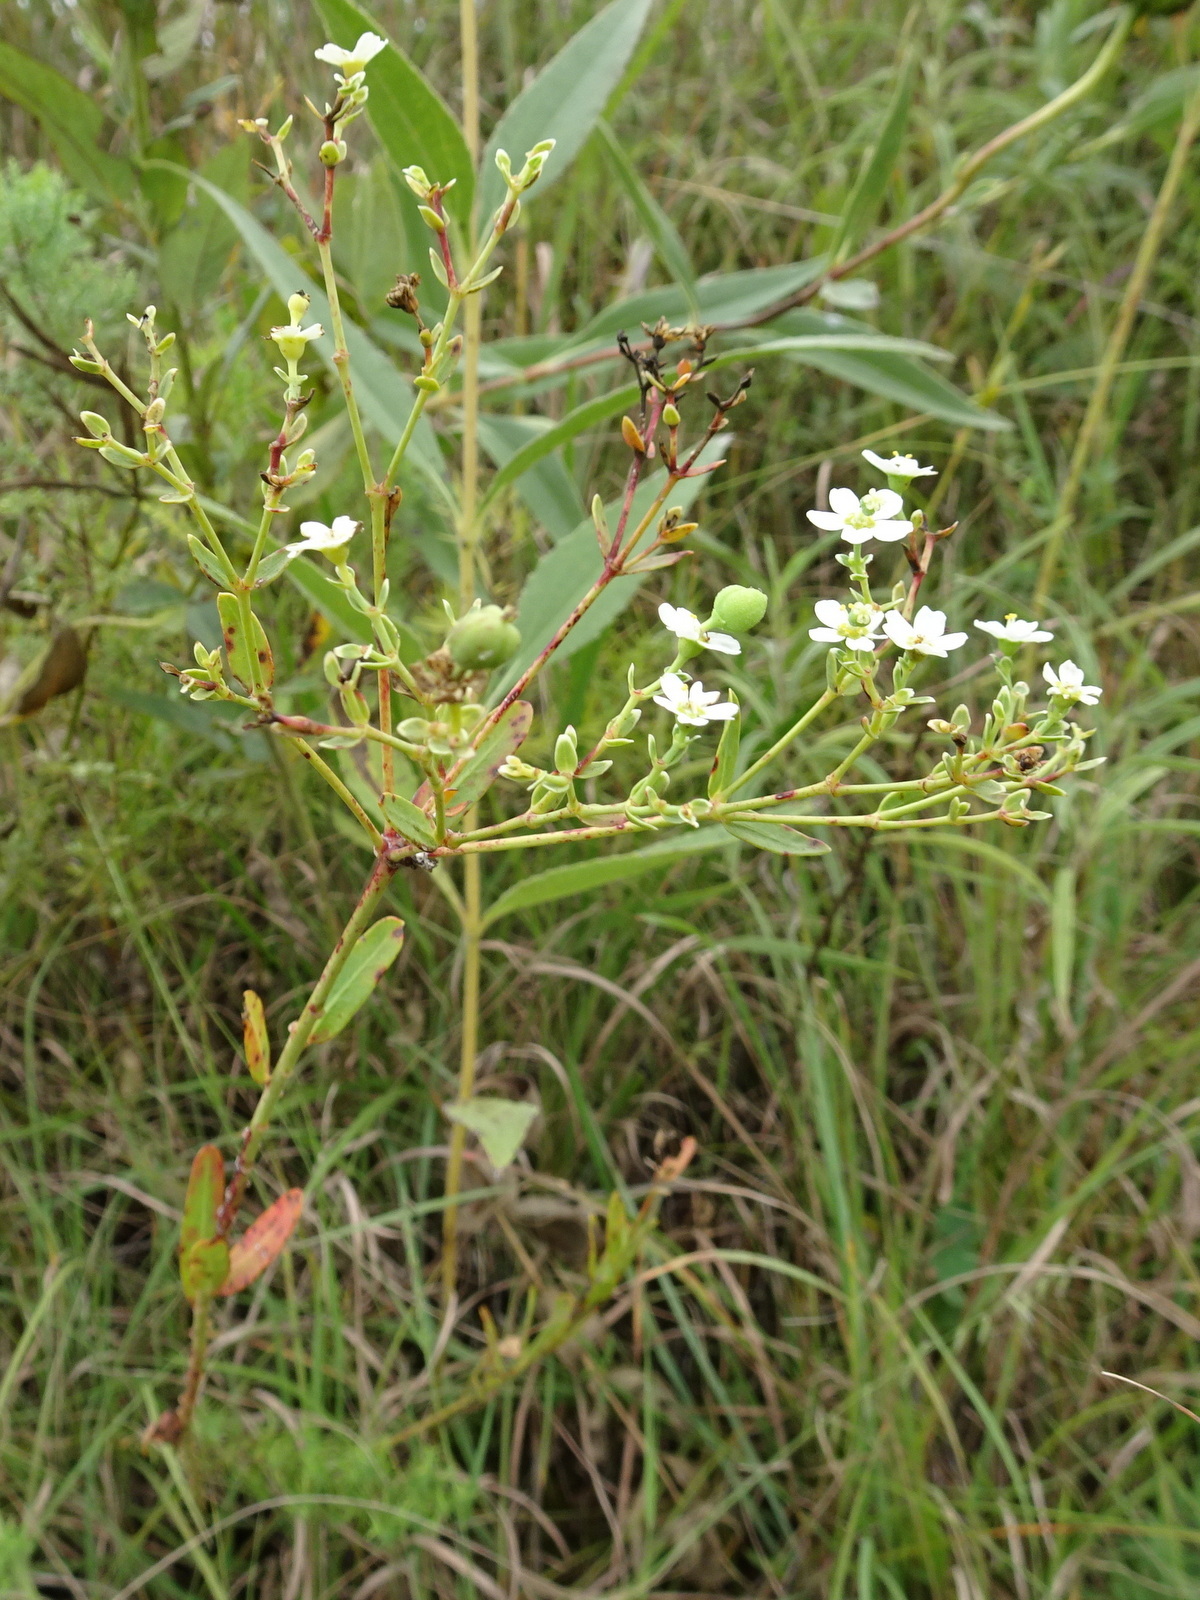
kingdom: Plantae
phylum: Tracheophyta
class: Magnoliopsida
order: Malpighiales
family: Euphorbiaceae
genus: Euphorbia
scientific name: Euphorbia corollata
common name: Flowering spurge
